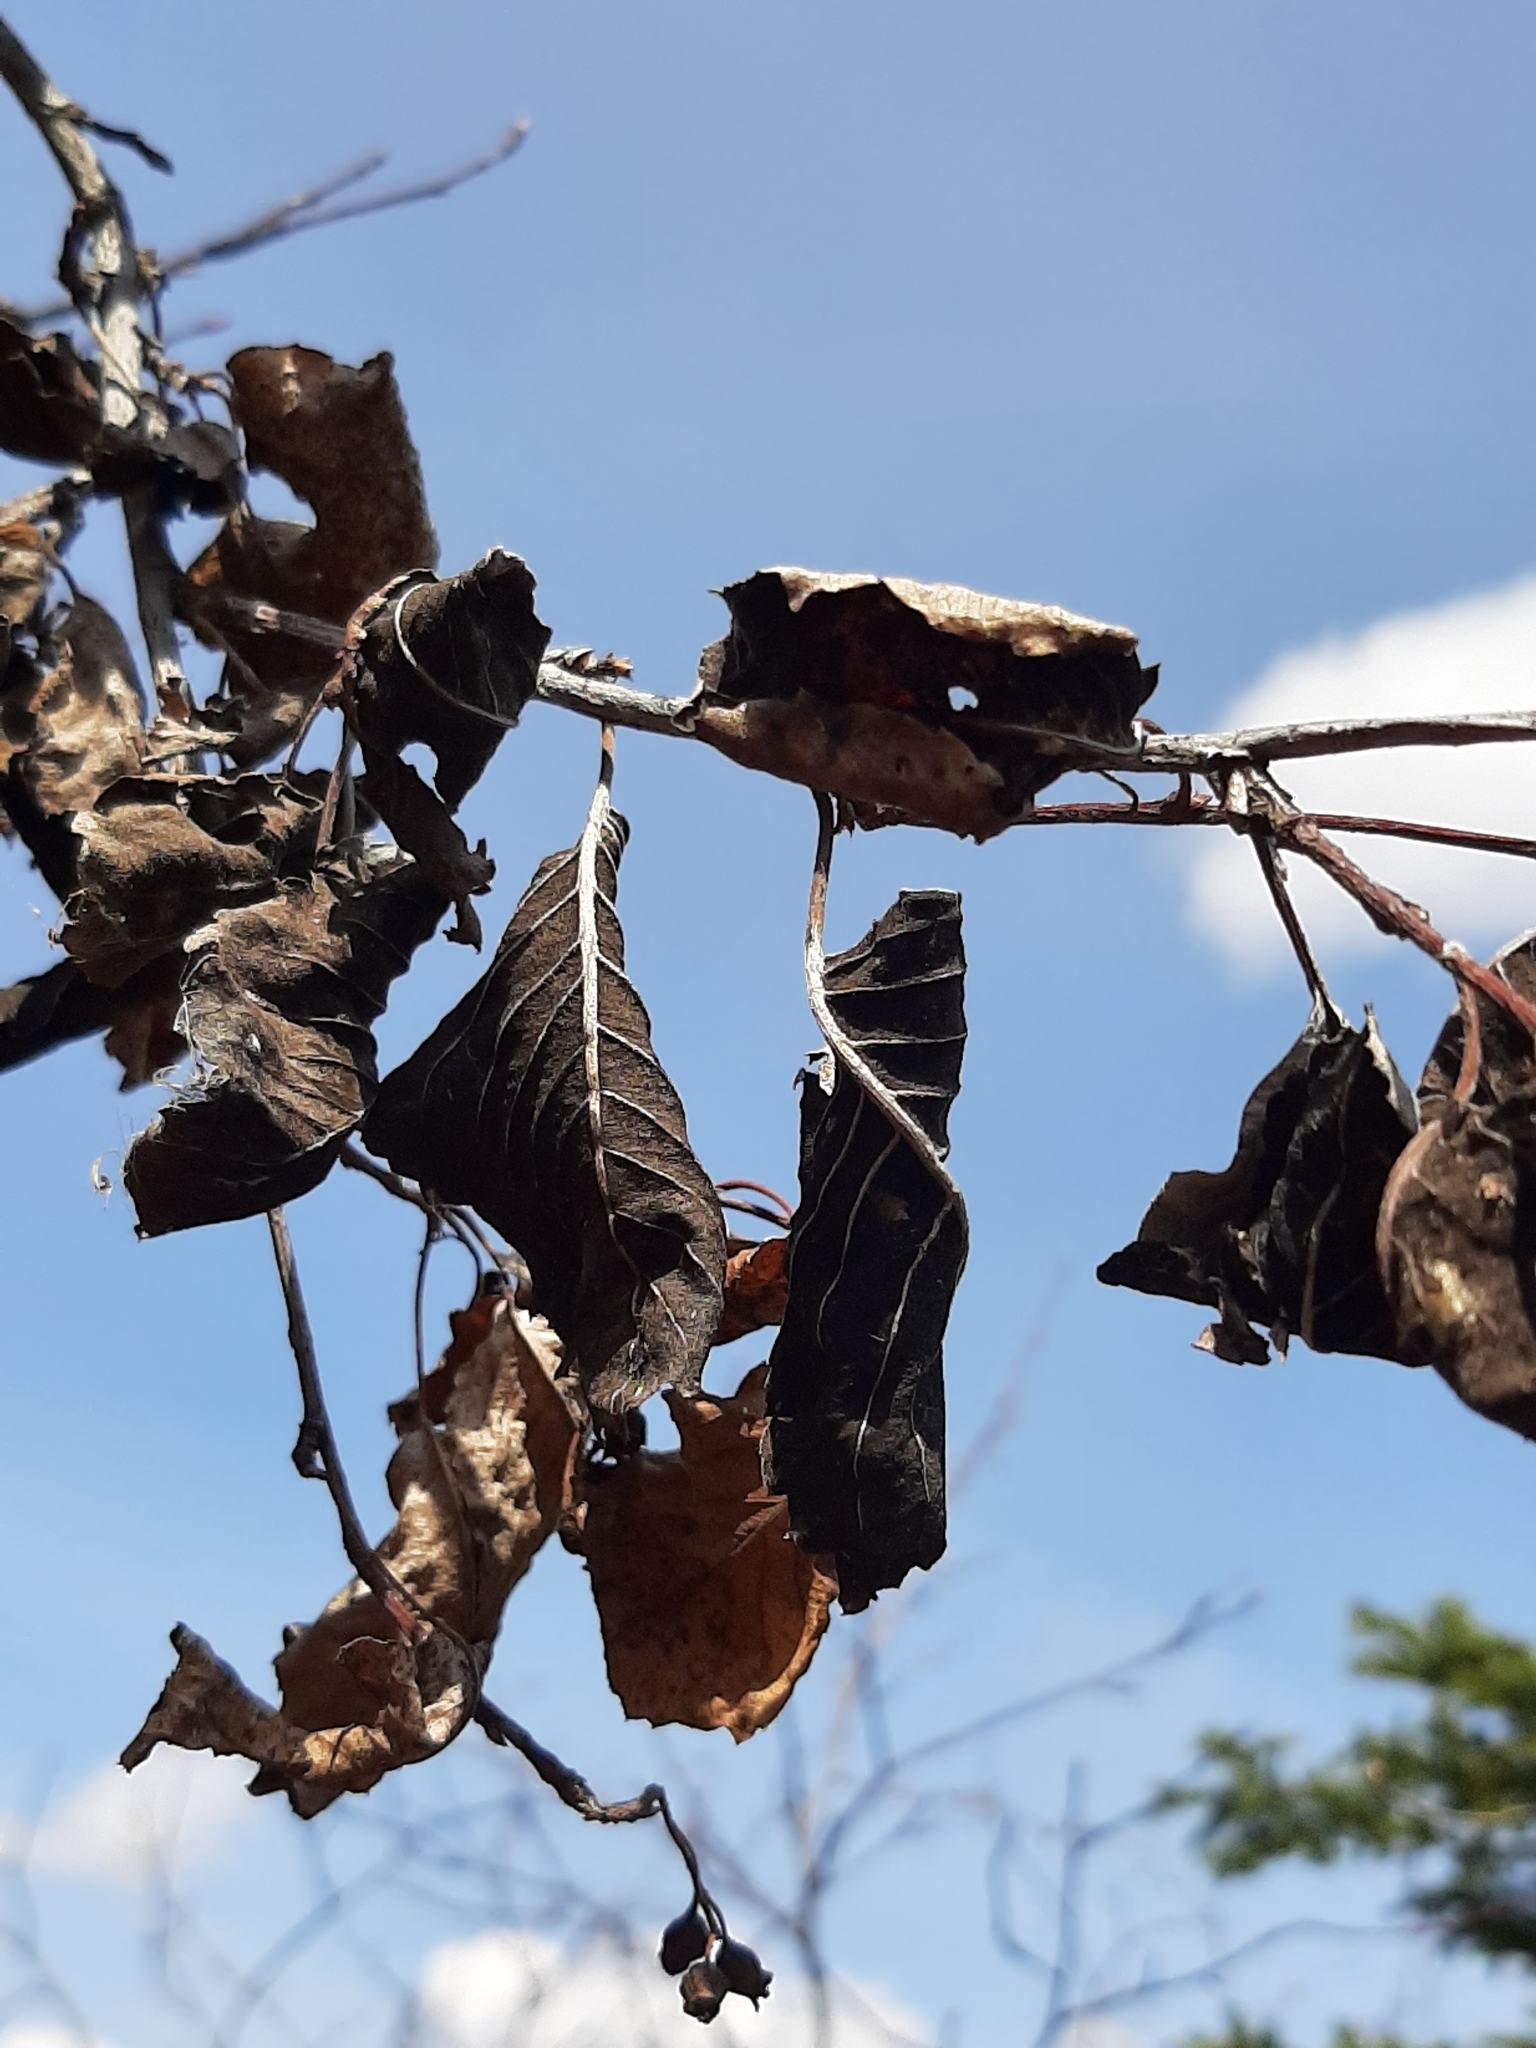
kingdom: Fungi
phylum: Ascomycota
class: Dothideomycetes
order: Venturiales
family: Venturiaceae
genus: Apiosporina
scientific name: Apiosporina collinsii
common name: Black leaf
